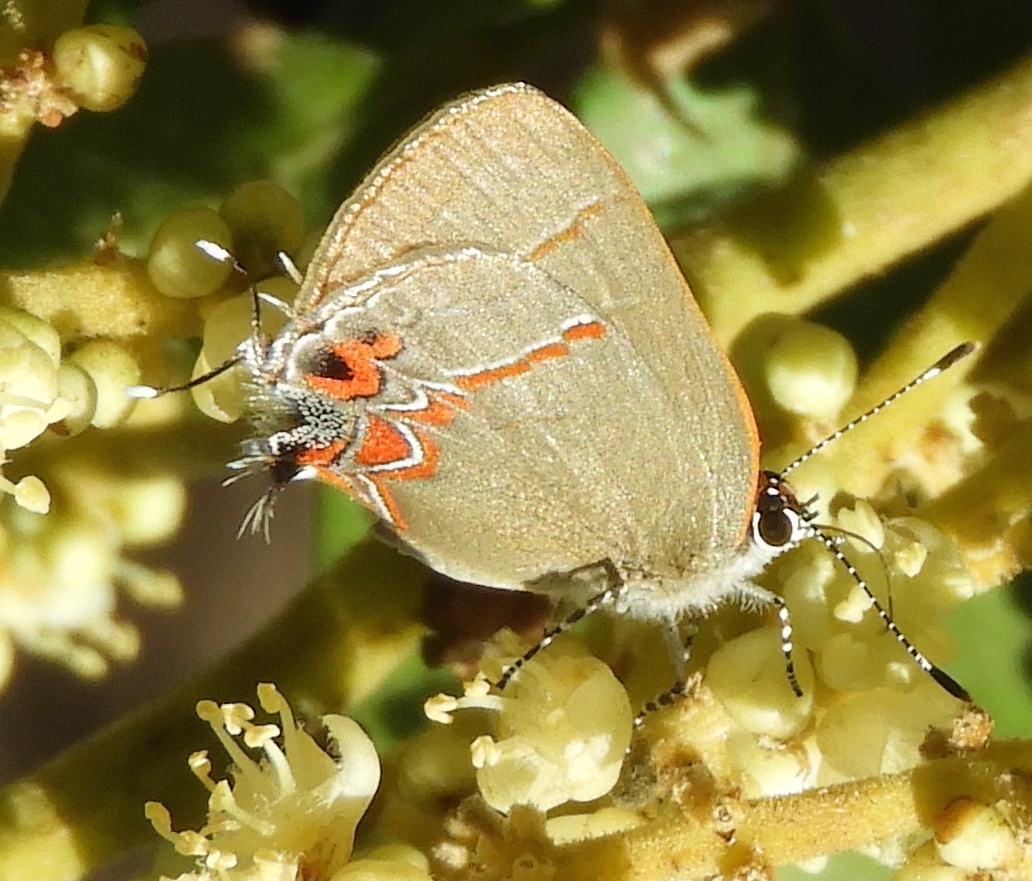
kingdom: Animalia
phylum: Arthropoda
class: Insecta
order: Lepidoptera
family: Lycaenidae
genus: Calycopis
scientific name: Calycopis
